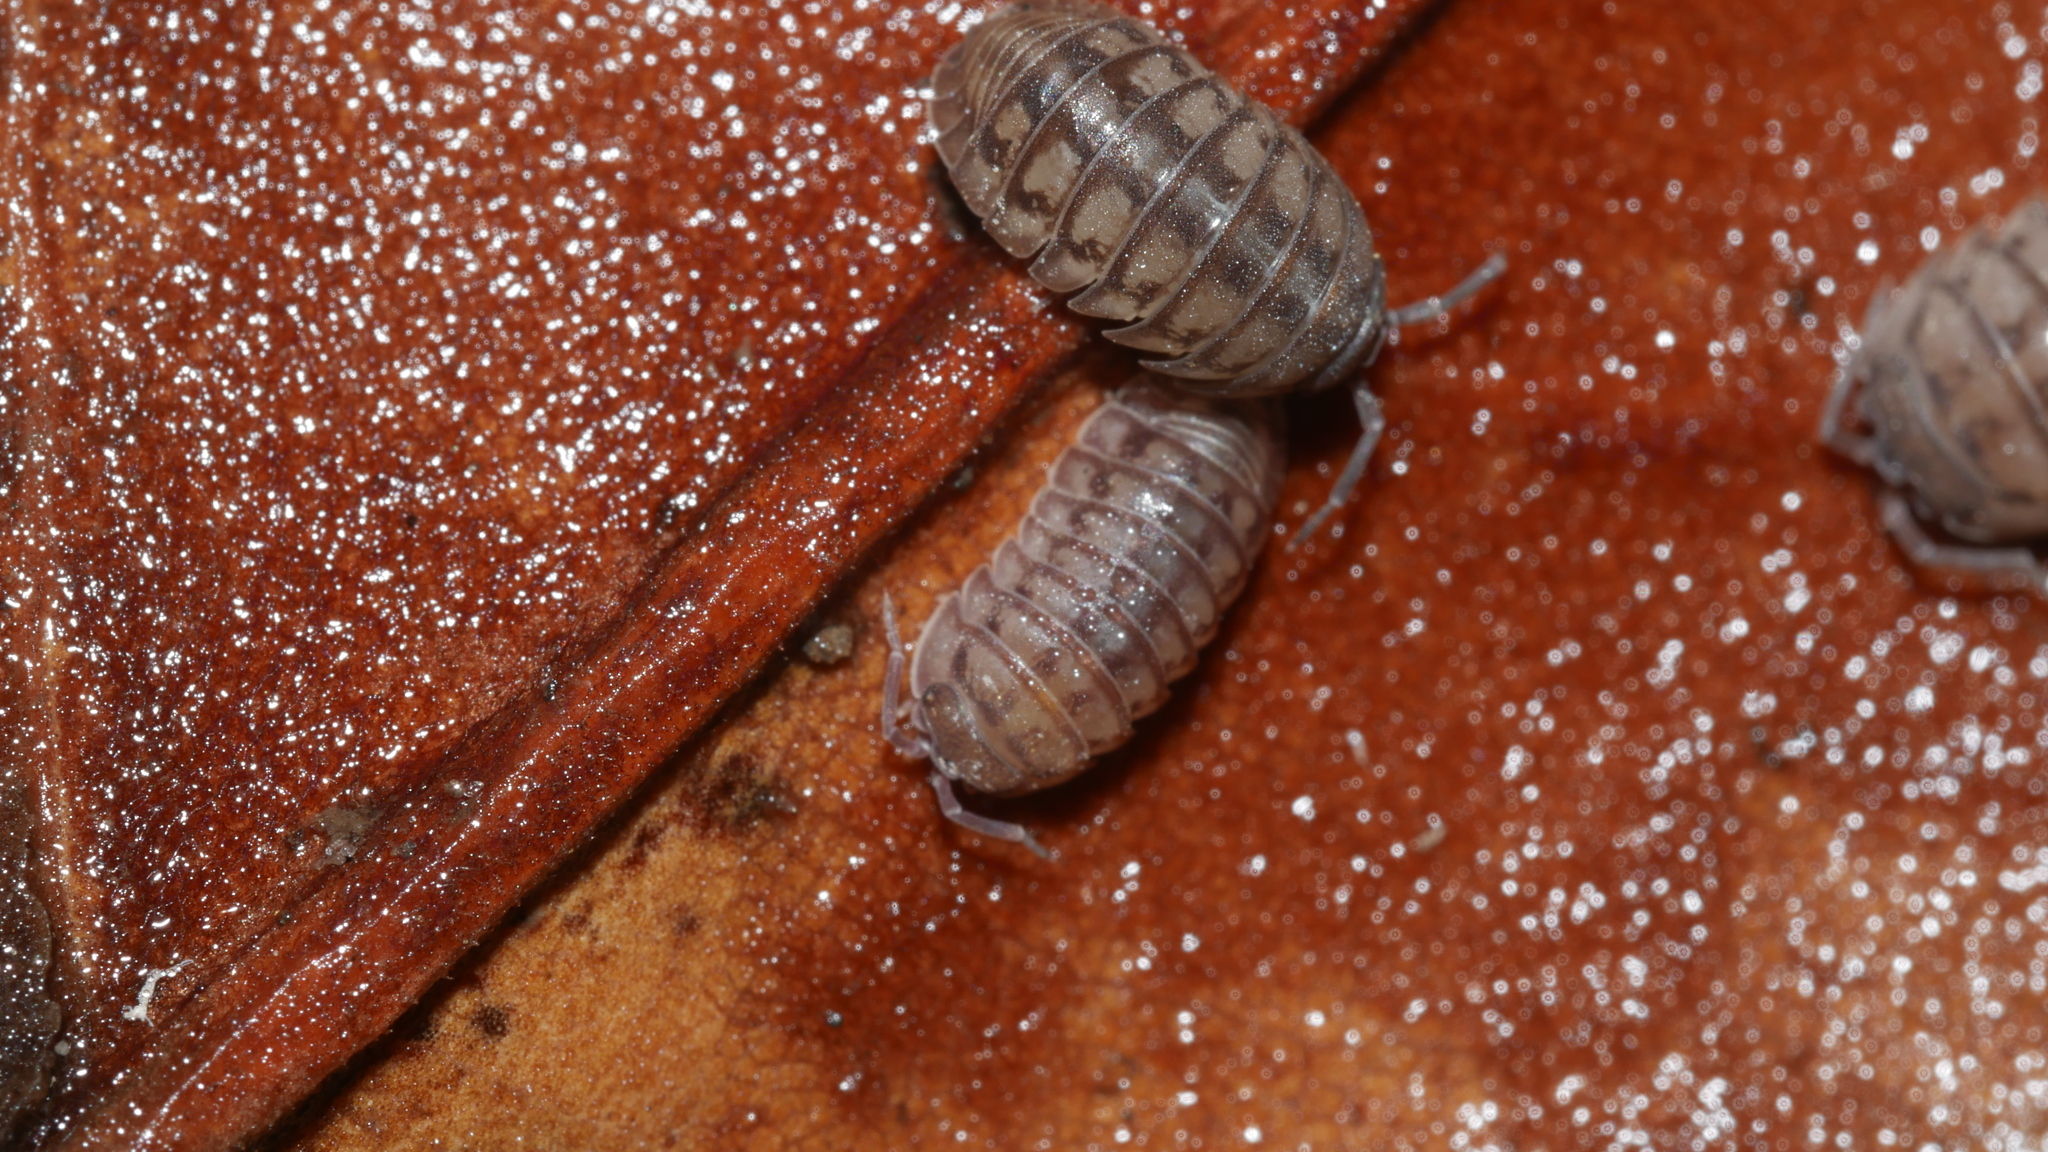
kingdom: Animalia
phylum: Arthropoda
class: Malacostraca
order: Isopoda
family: Armadillidiidae
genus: Armadillidium
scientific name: Armadillidium nasatum
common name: Isopod
